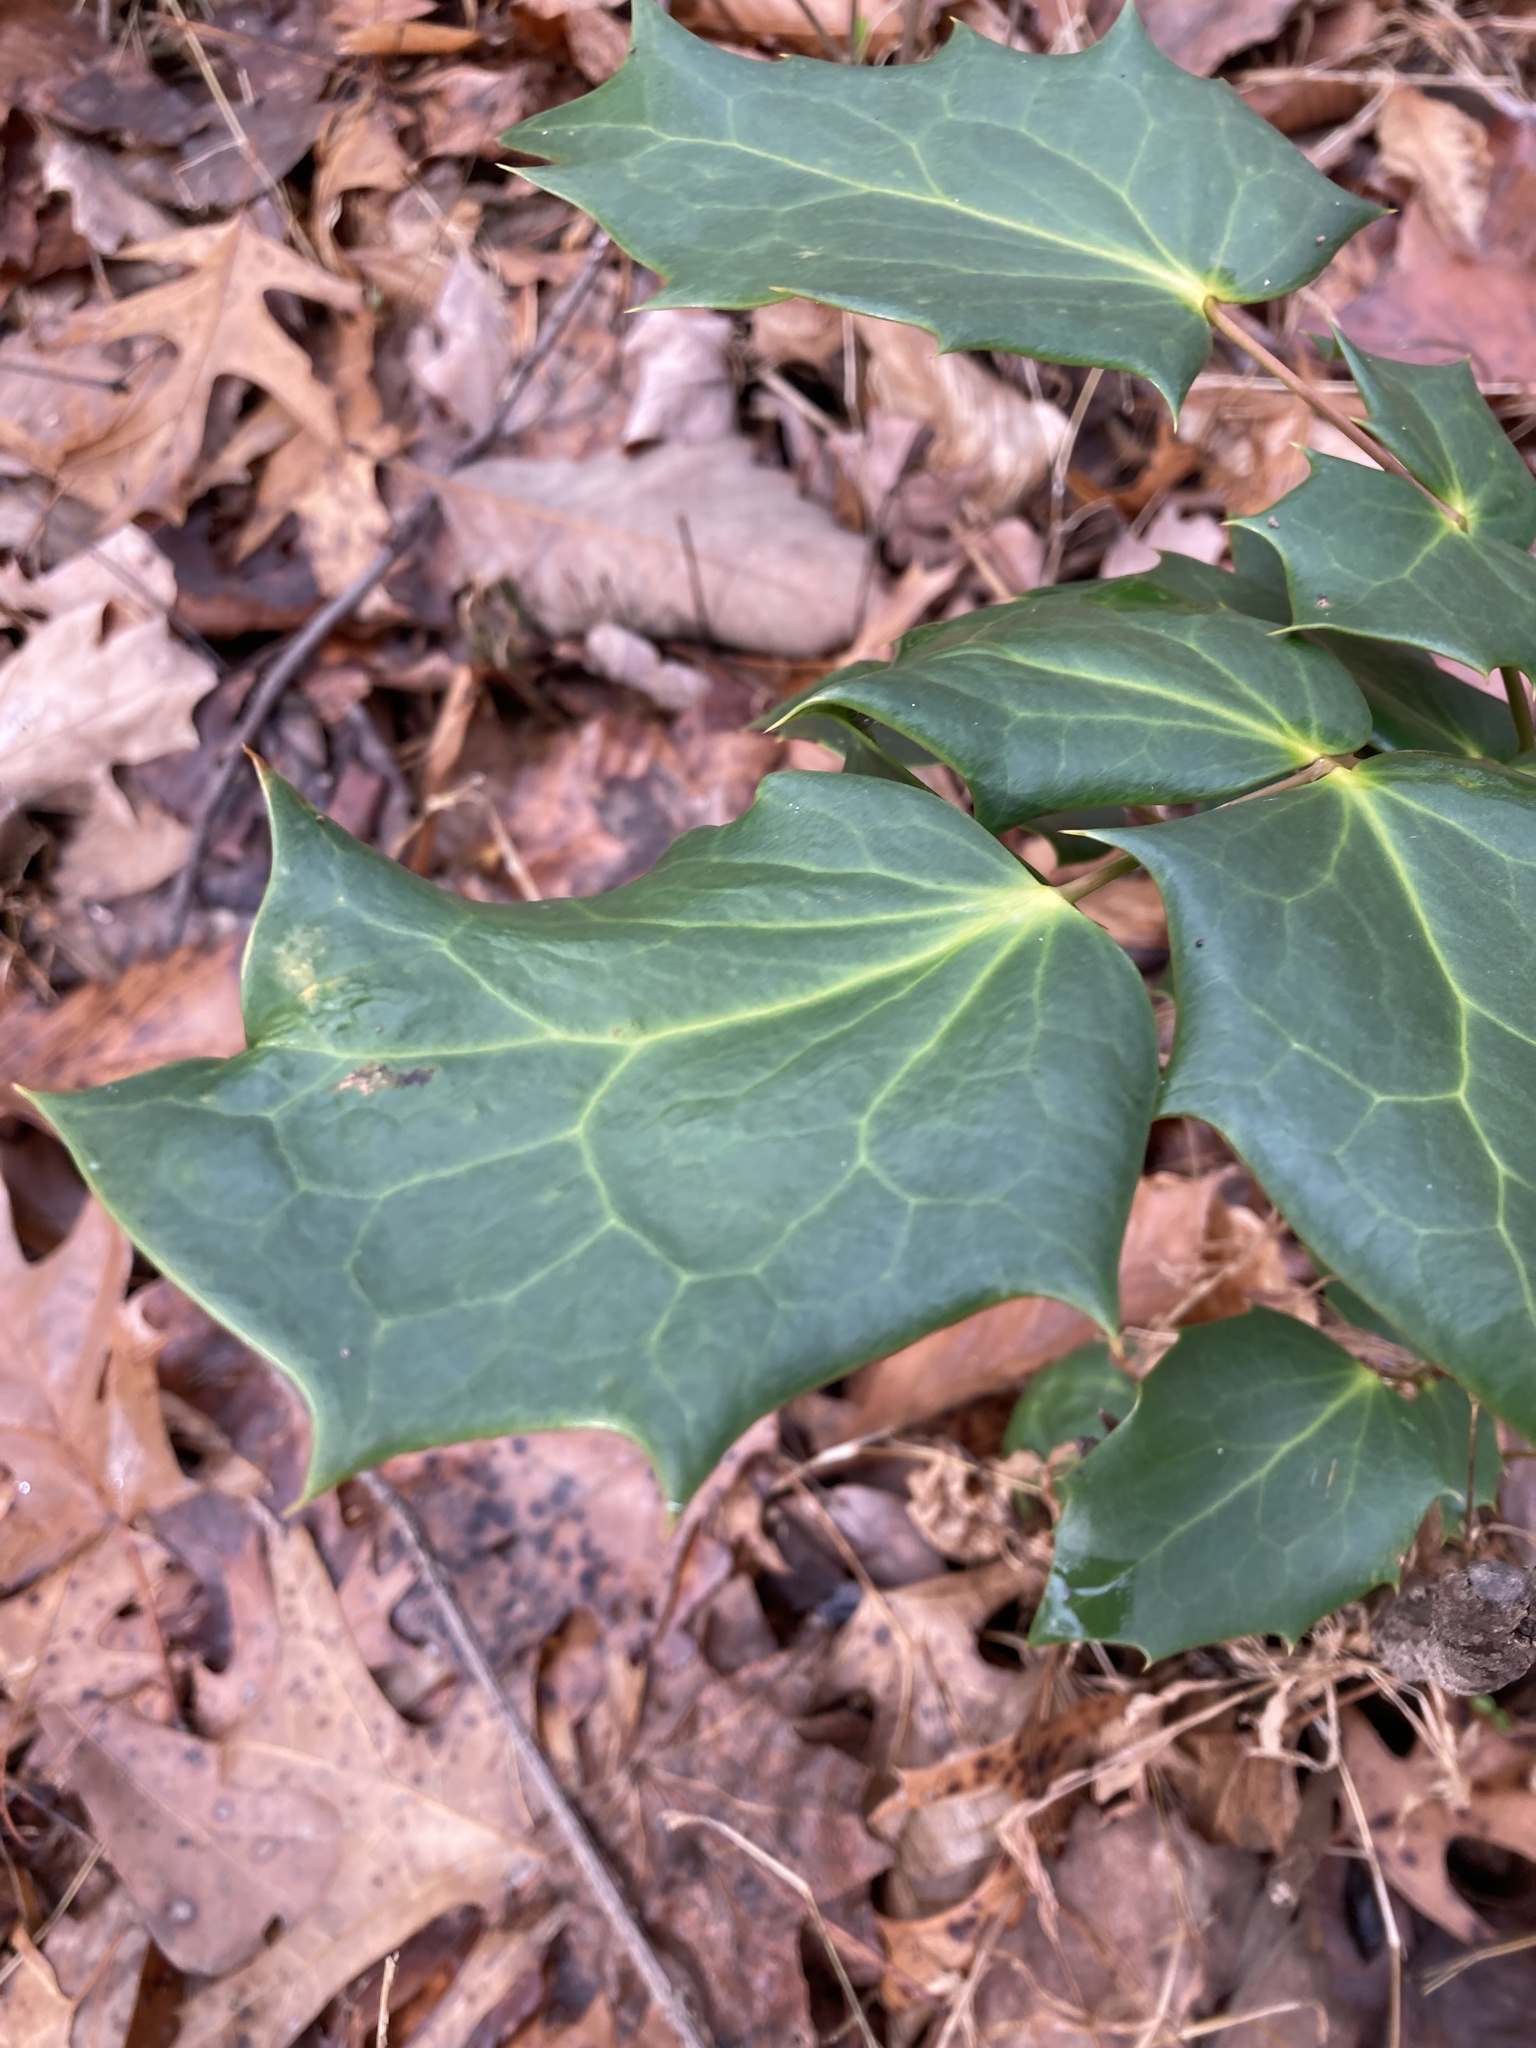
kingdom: Plantae
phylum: Tracheophyta
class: Magnoliopsida
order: Ranunculales
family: Berberidaceae
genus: Mahonia
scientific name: Mahonia bealei
